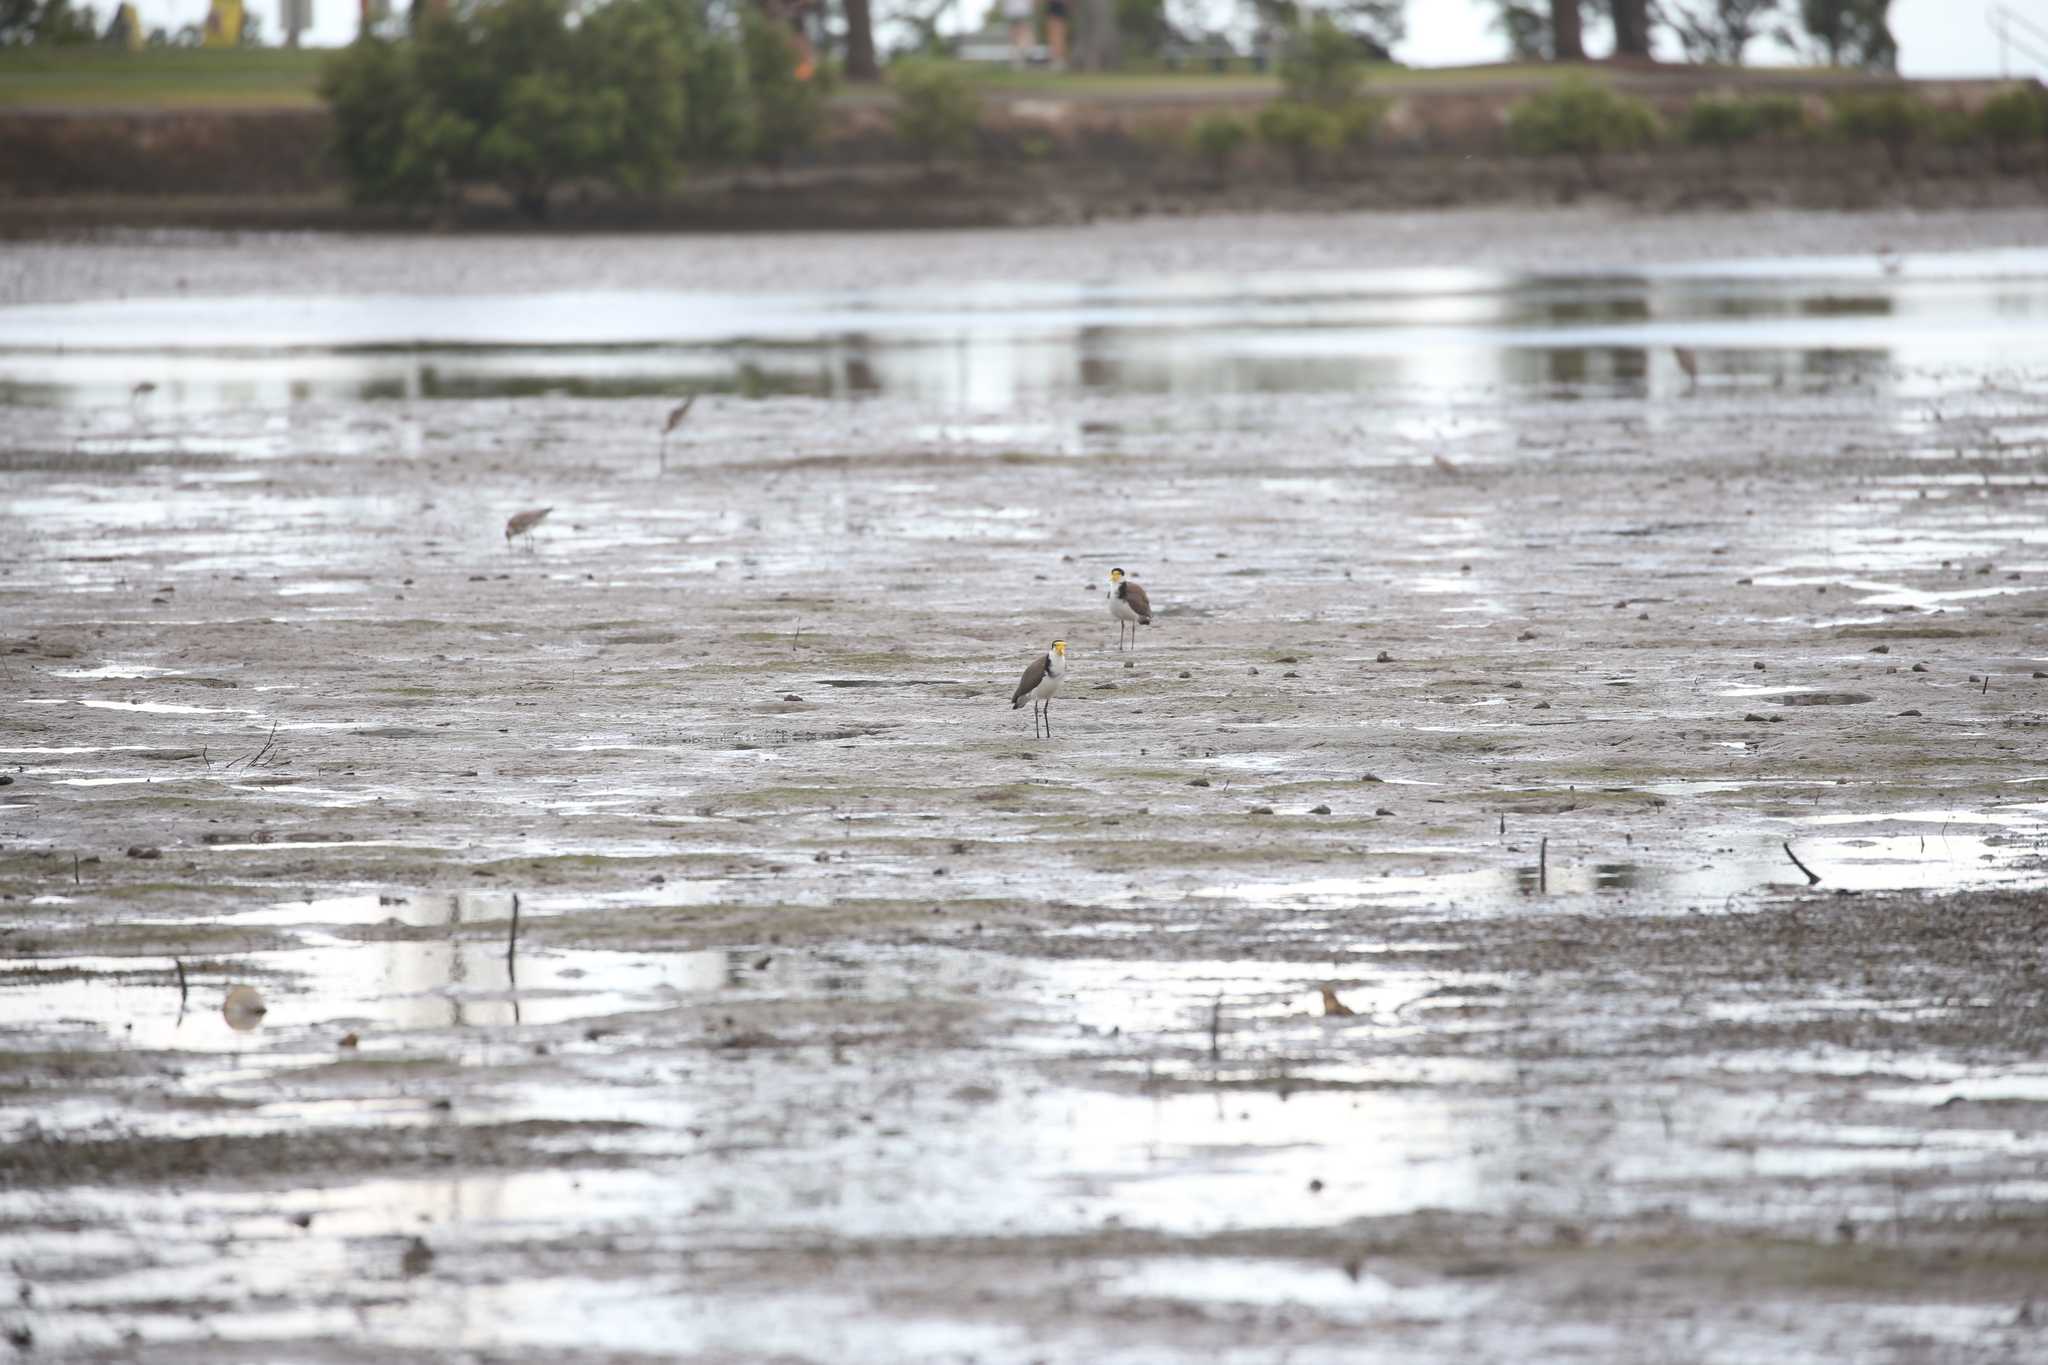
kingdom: Animalia
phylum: Chordata
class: Aves
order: Charadriiformes
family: Charadriidae
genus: Vanellus
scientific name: Vanellus miles
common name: Masked lapwing
